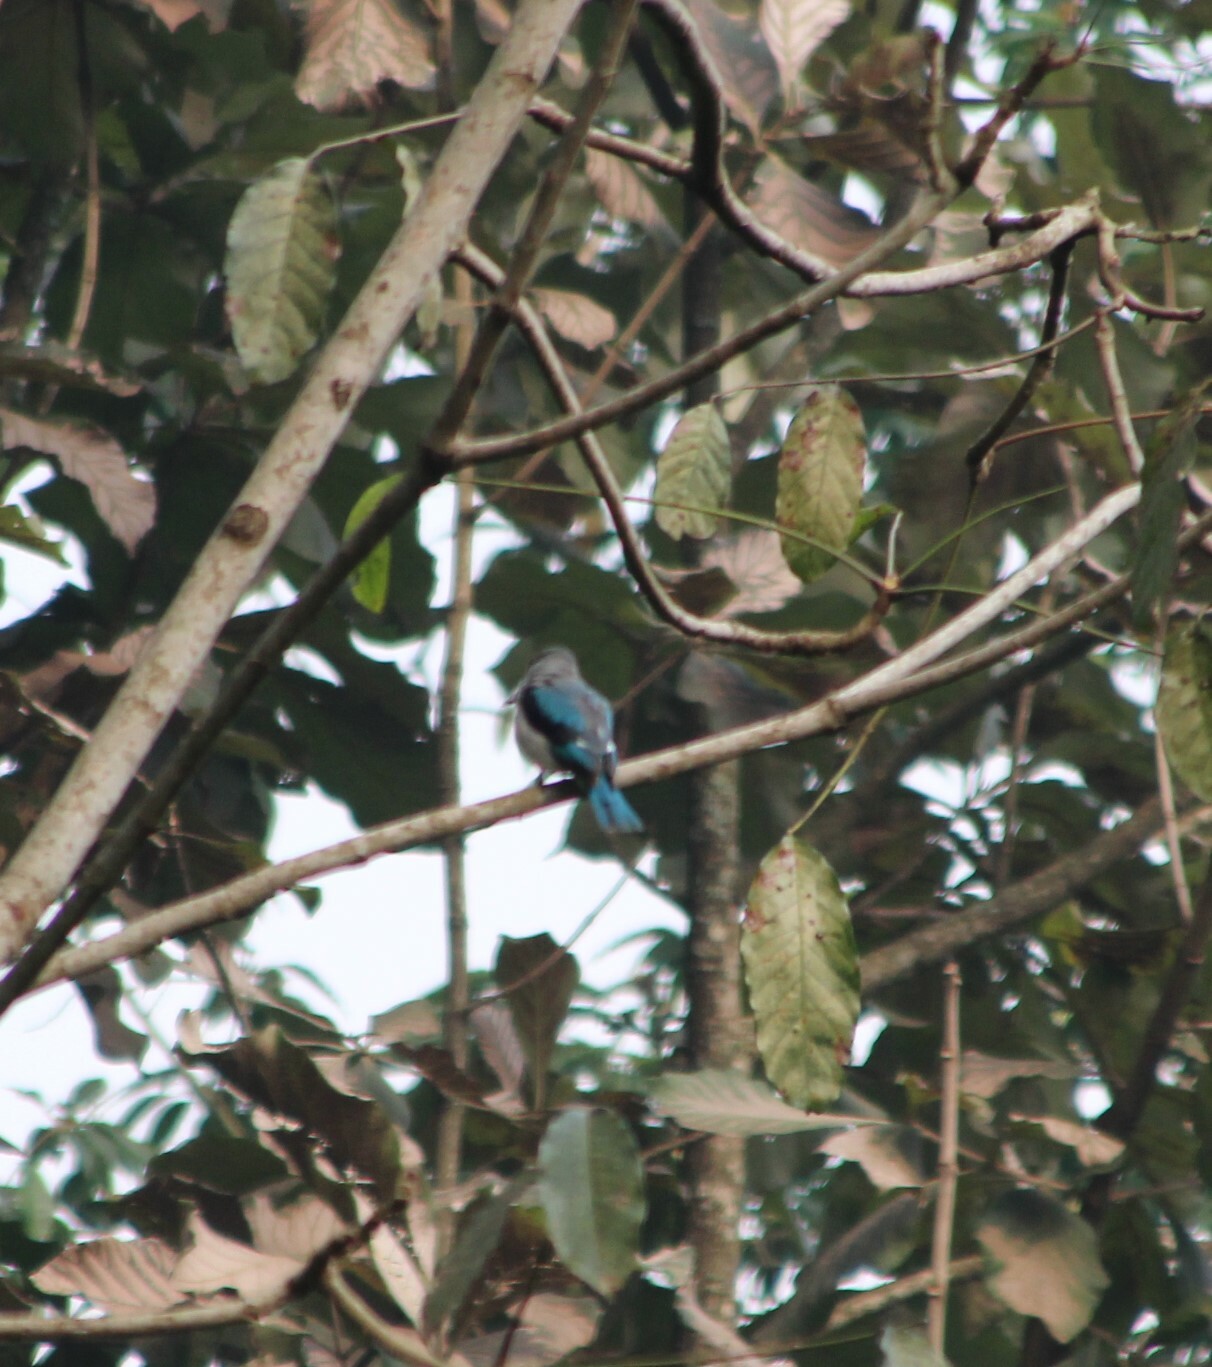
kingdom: Animalia
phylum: Chordata
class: Aves
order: Coraciiformes
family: Alcedinidae
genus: Halcyon
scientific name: Halcyon senegalensis
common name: Woodland kingfisher
